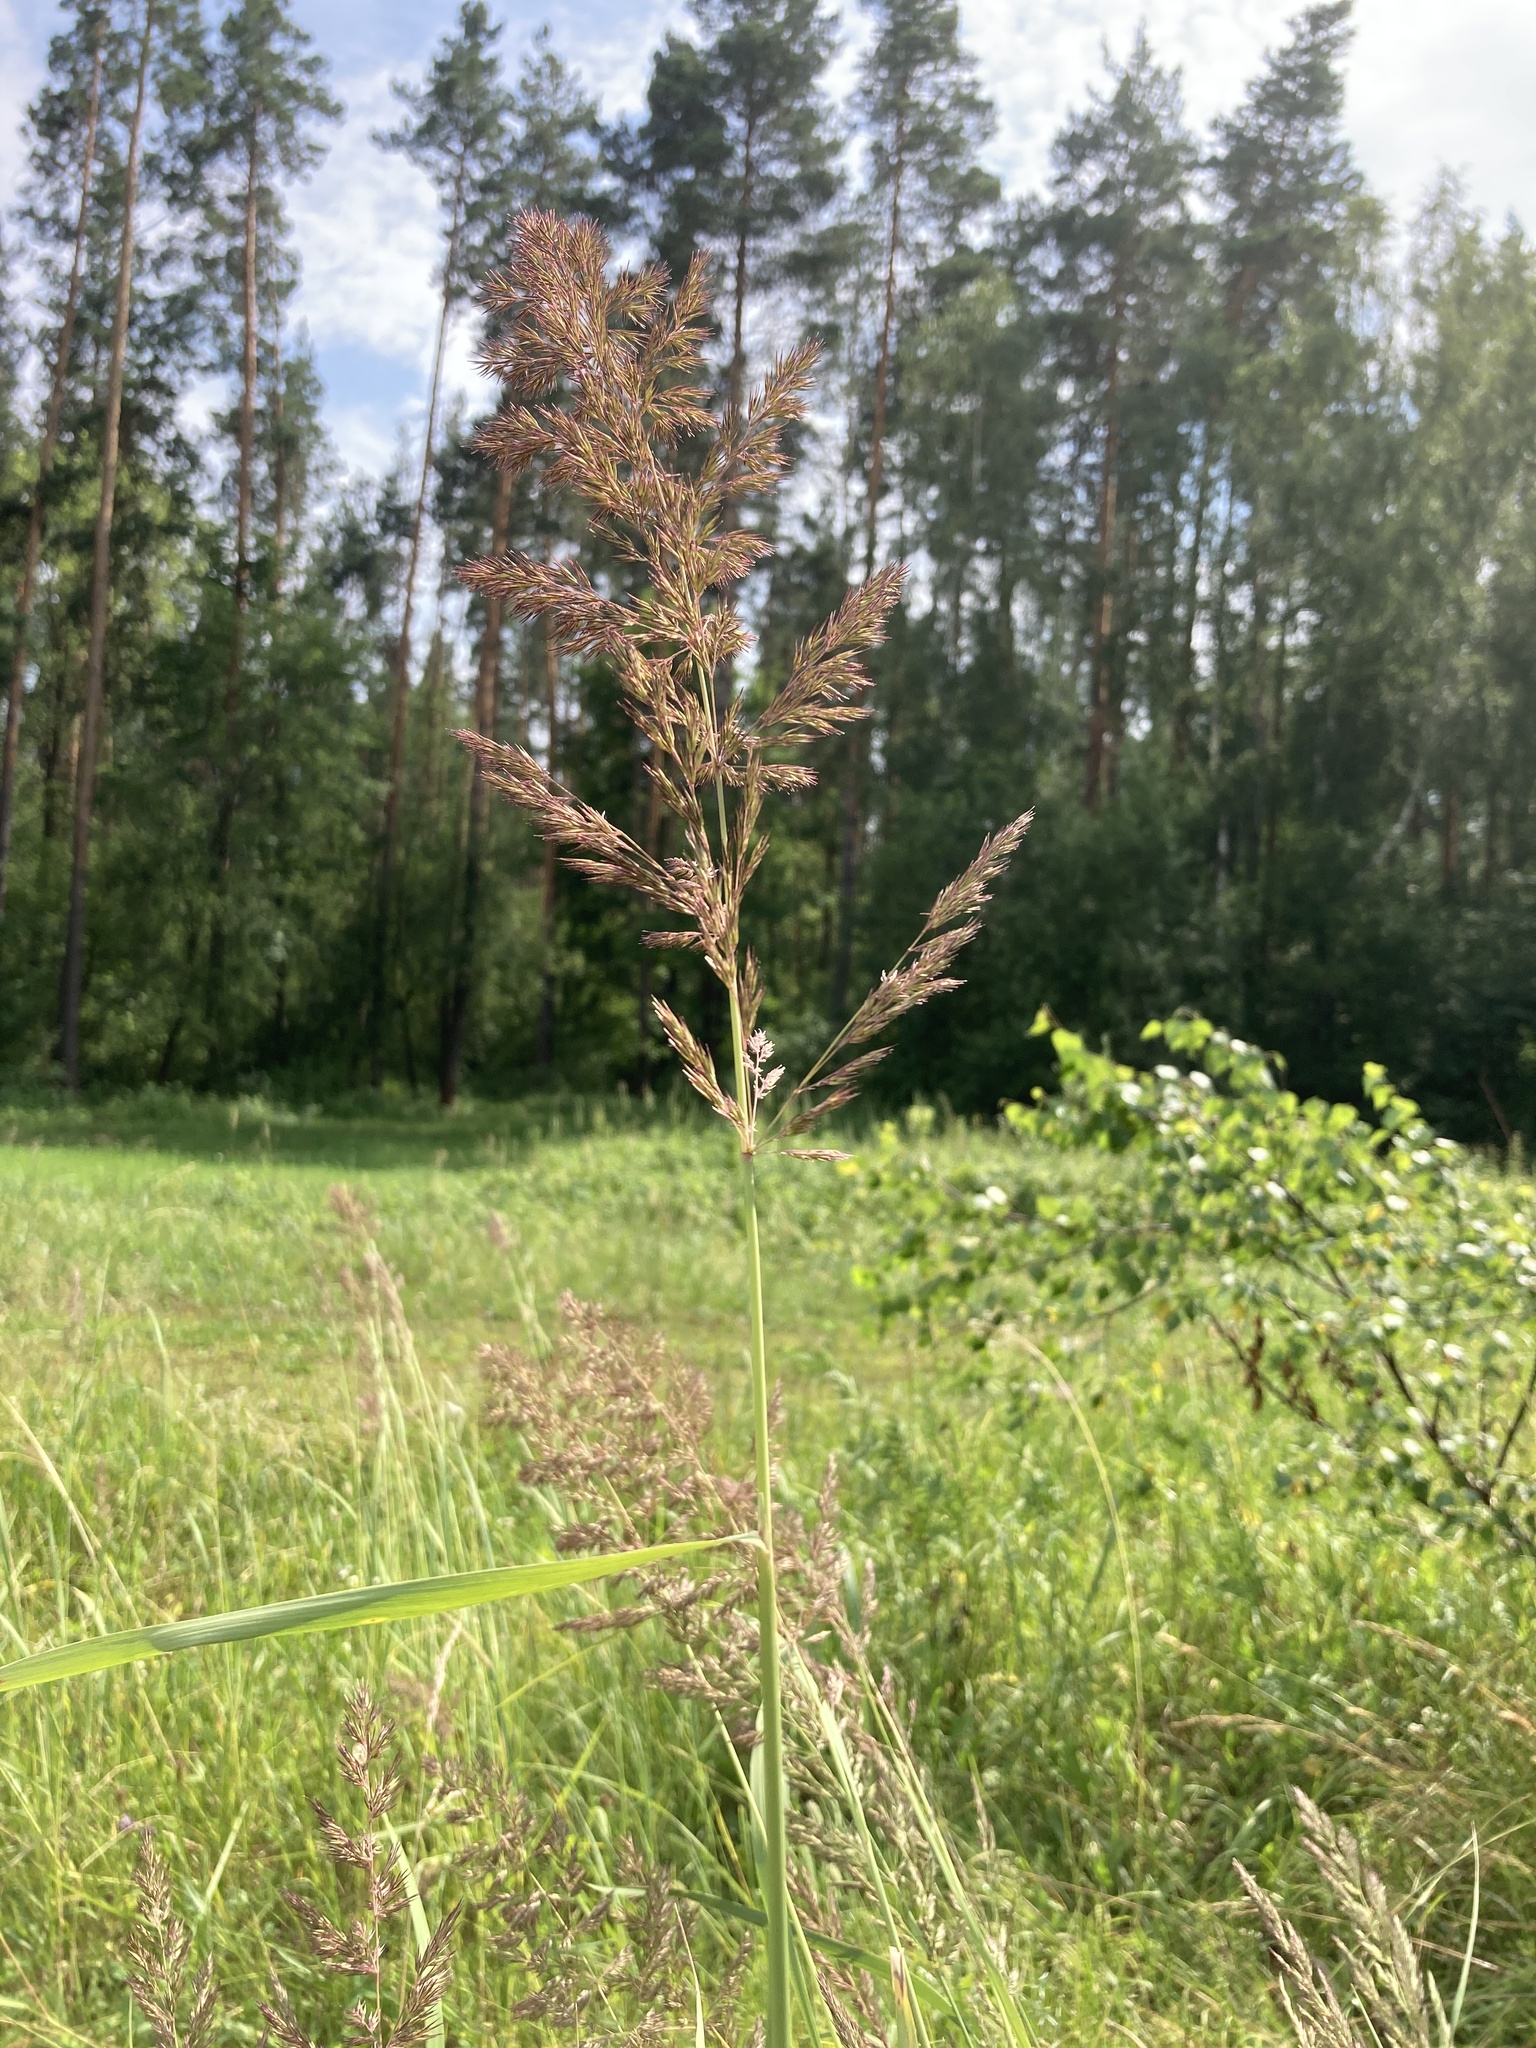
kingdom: Plantae
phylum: Tracheophyta
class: Liliopsida
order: Poales
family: Poaceae
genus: Calamagrostis
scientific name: Calamagrostis epigejos
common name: Wood small-reed
